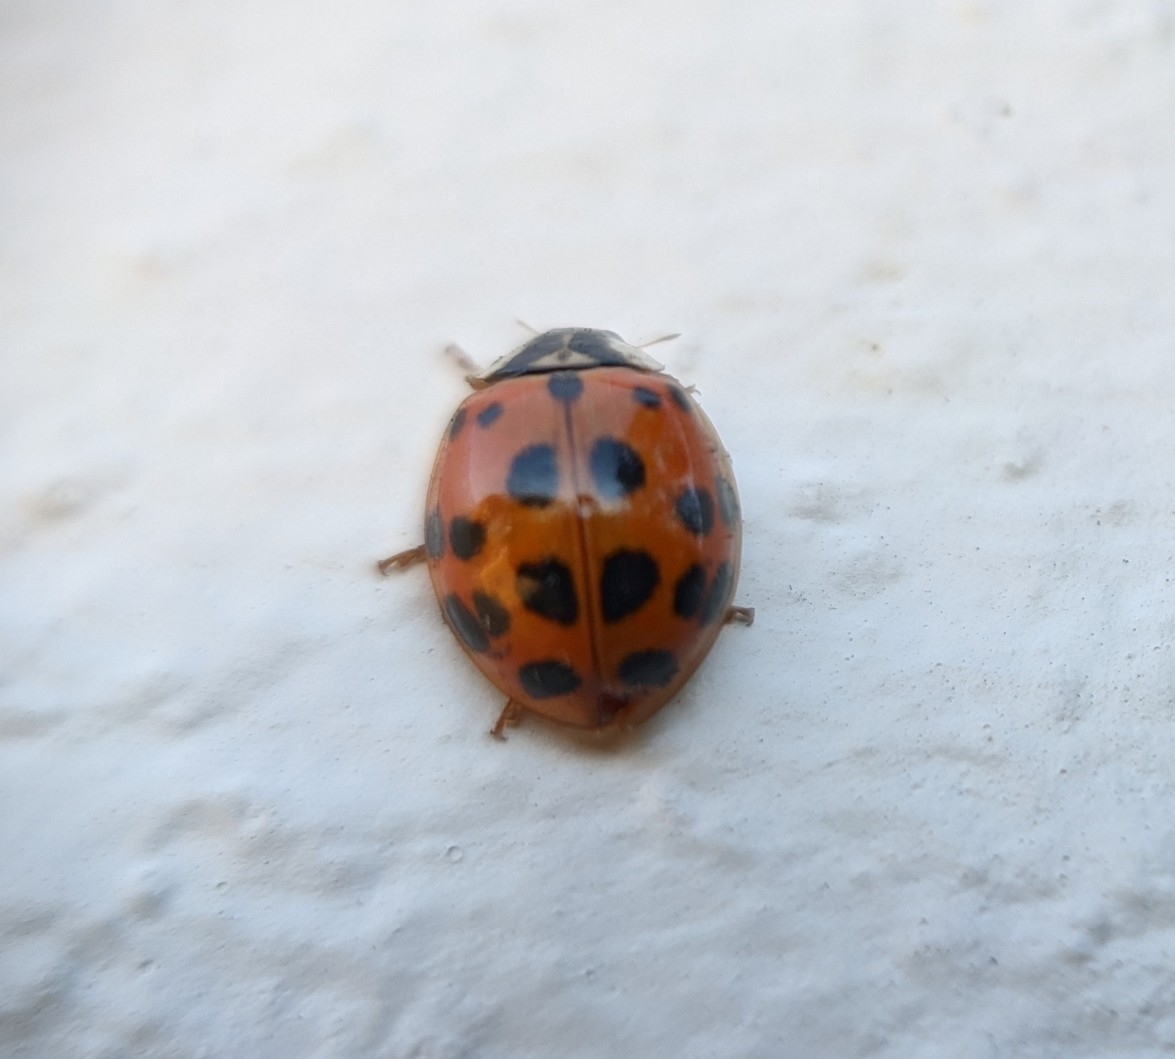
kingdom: Animalia
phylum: Arthropoda
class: Insecta
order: Coleoptera
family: Coccinellidae
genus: Harmonia
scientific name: Harmonia axyridis
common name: Harlequin ladybird
